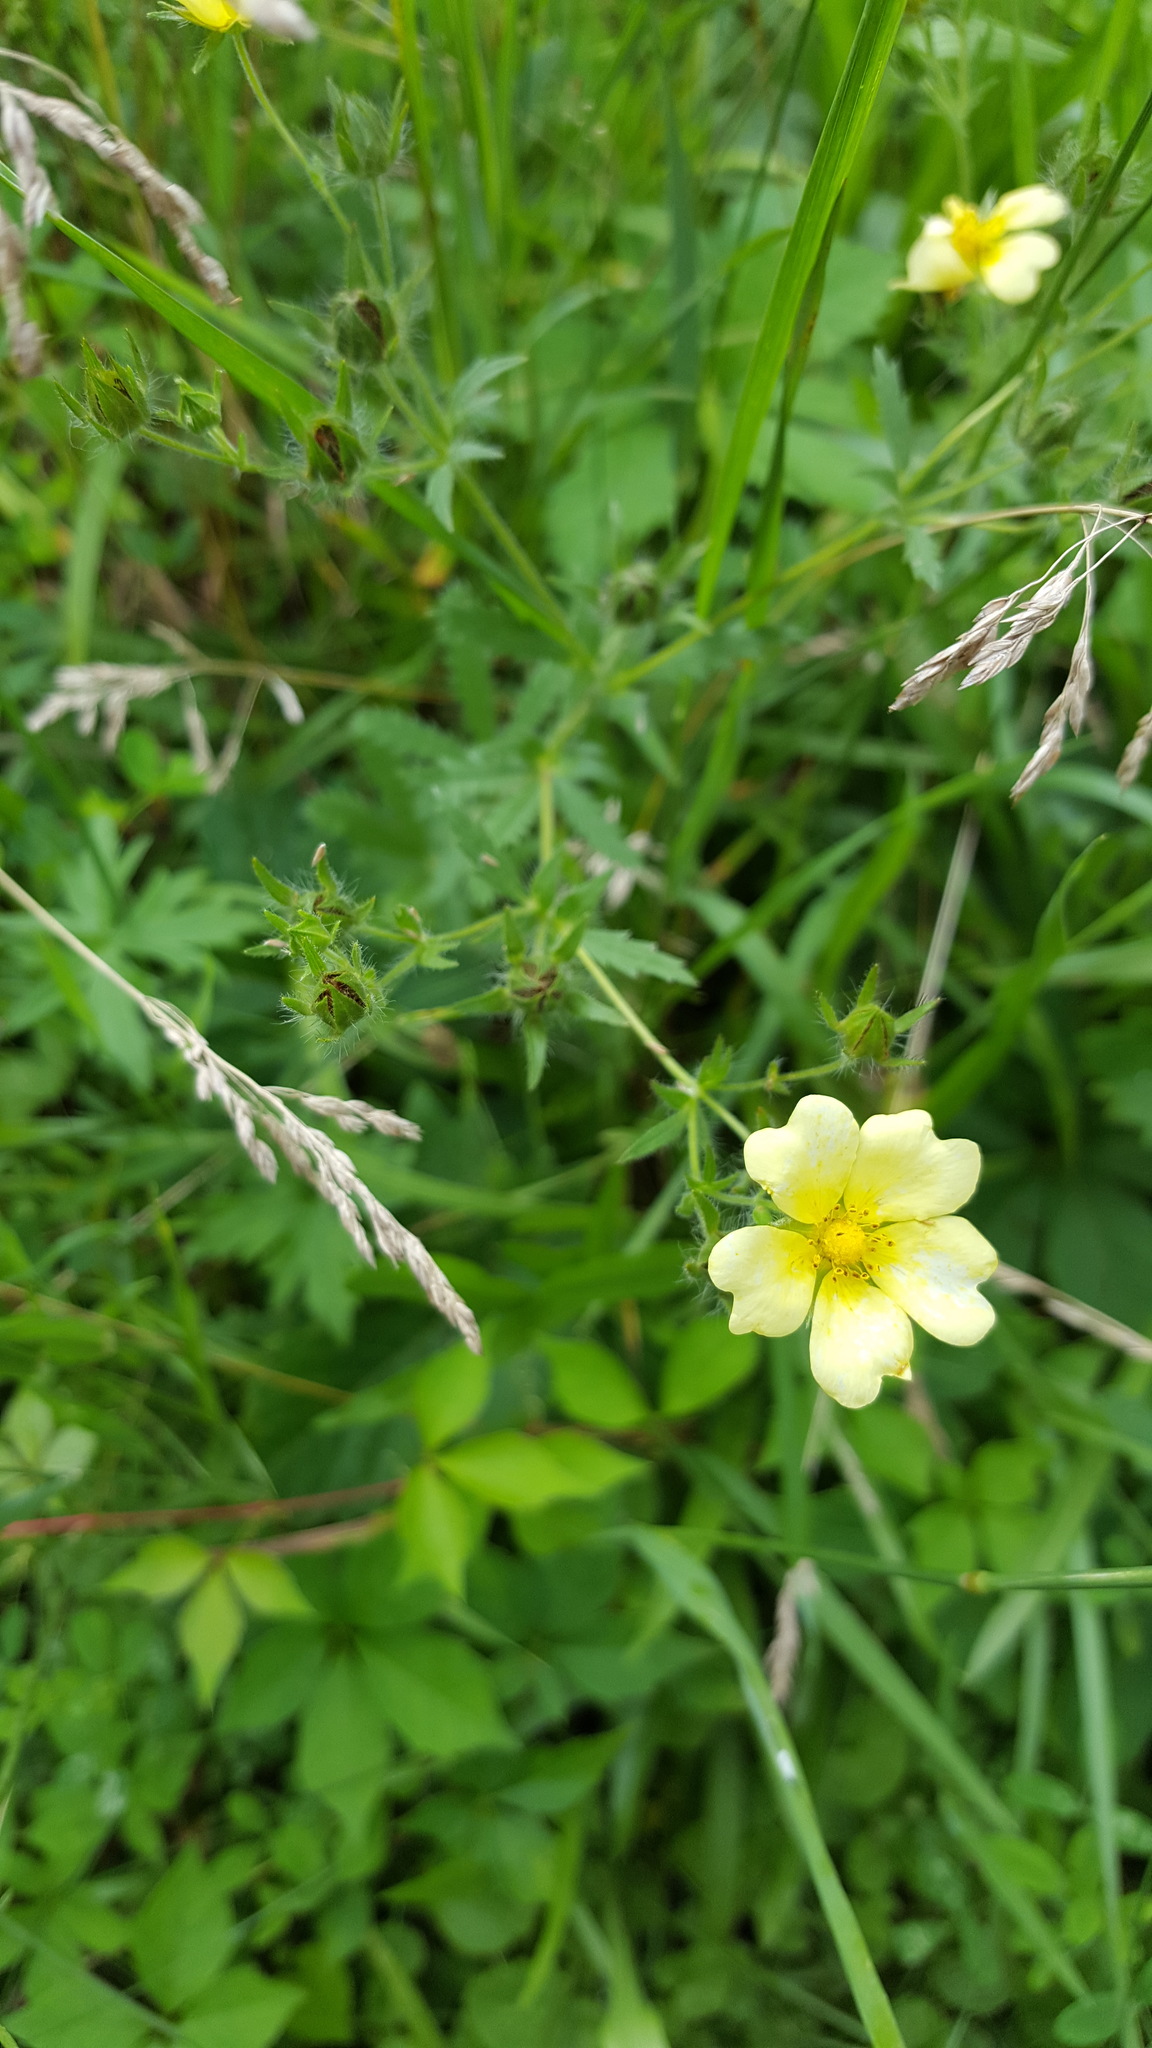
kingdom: Plantae
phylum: Tracheophyta
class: Magnoliopsida
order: Rosales
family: Rosaceae
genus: Potentilla
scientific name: Potentilla recta
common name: Sulphur cinquefoil
